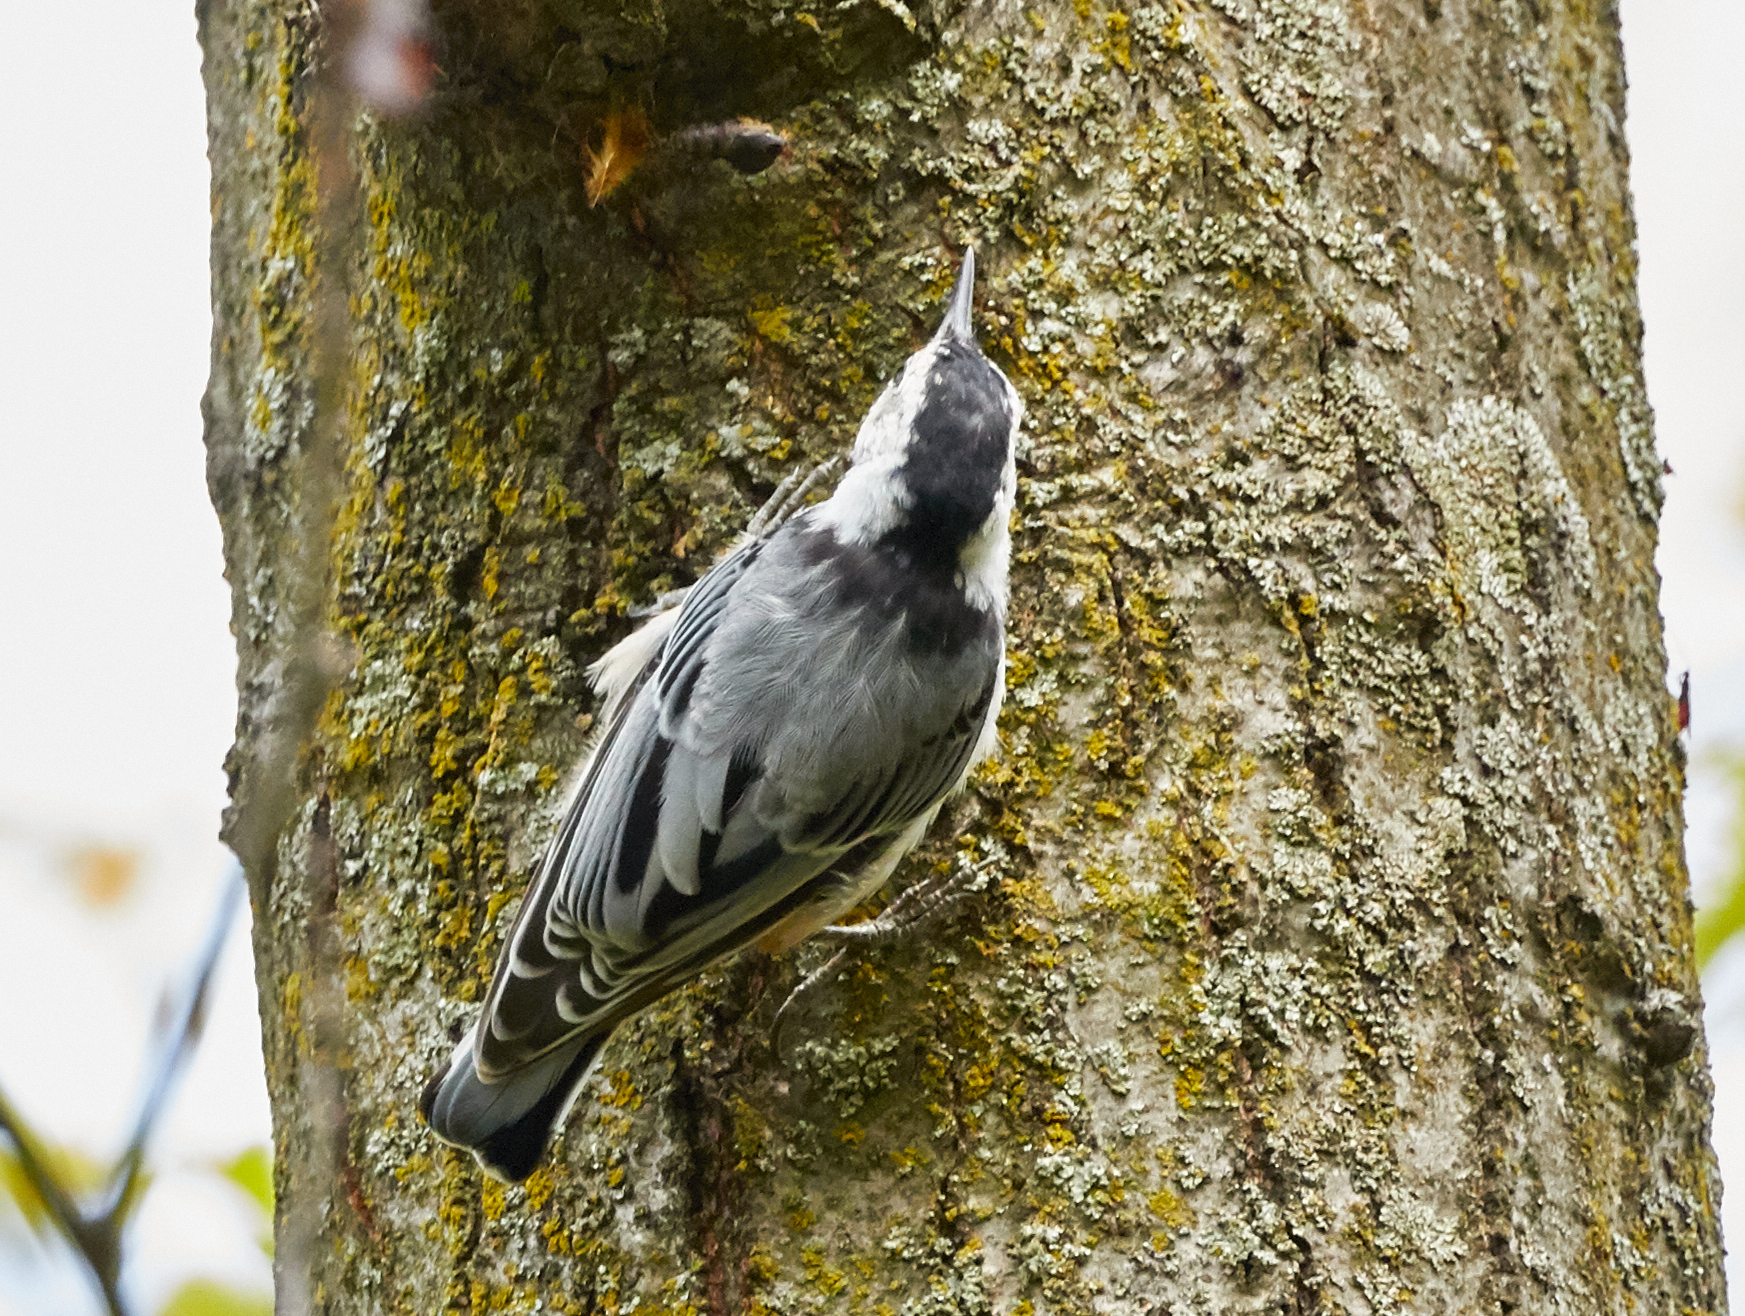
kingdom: Animalia
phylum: Chordata
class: Aves
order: Passeriformes
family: Sittidae
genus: Sitta
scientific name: Sitta carolinensis
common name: White-breasted nuthatch
